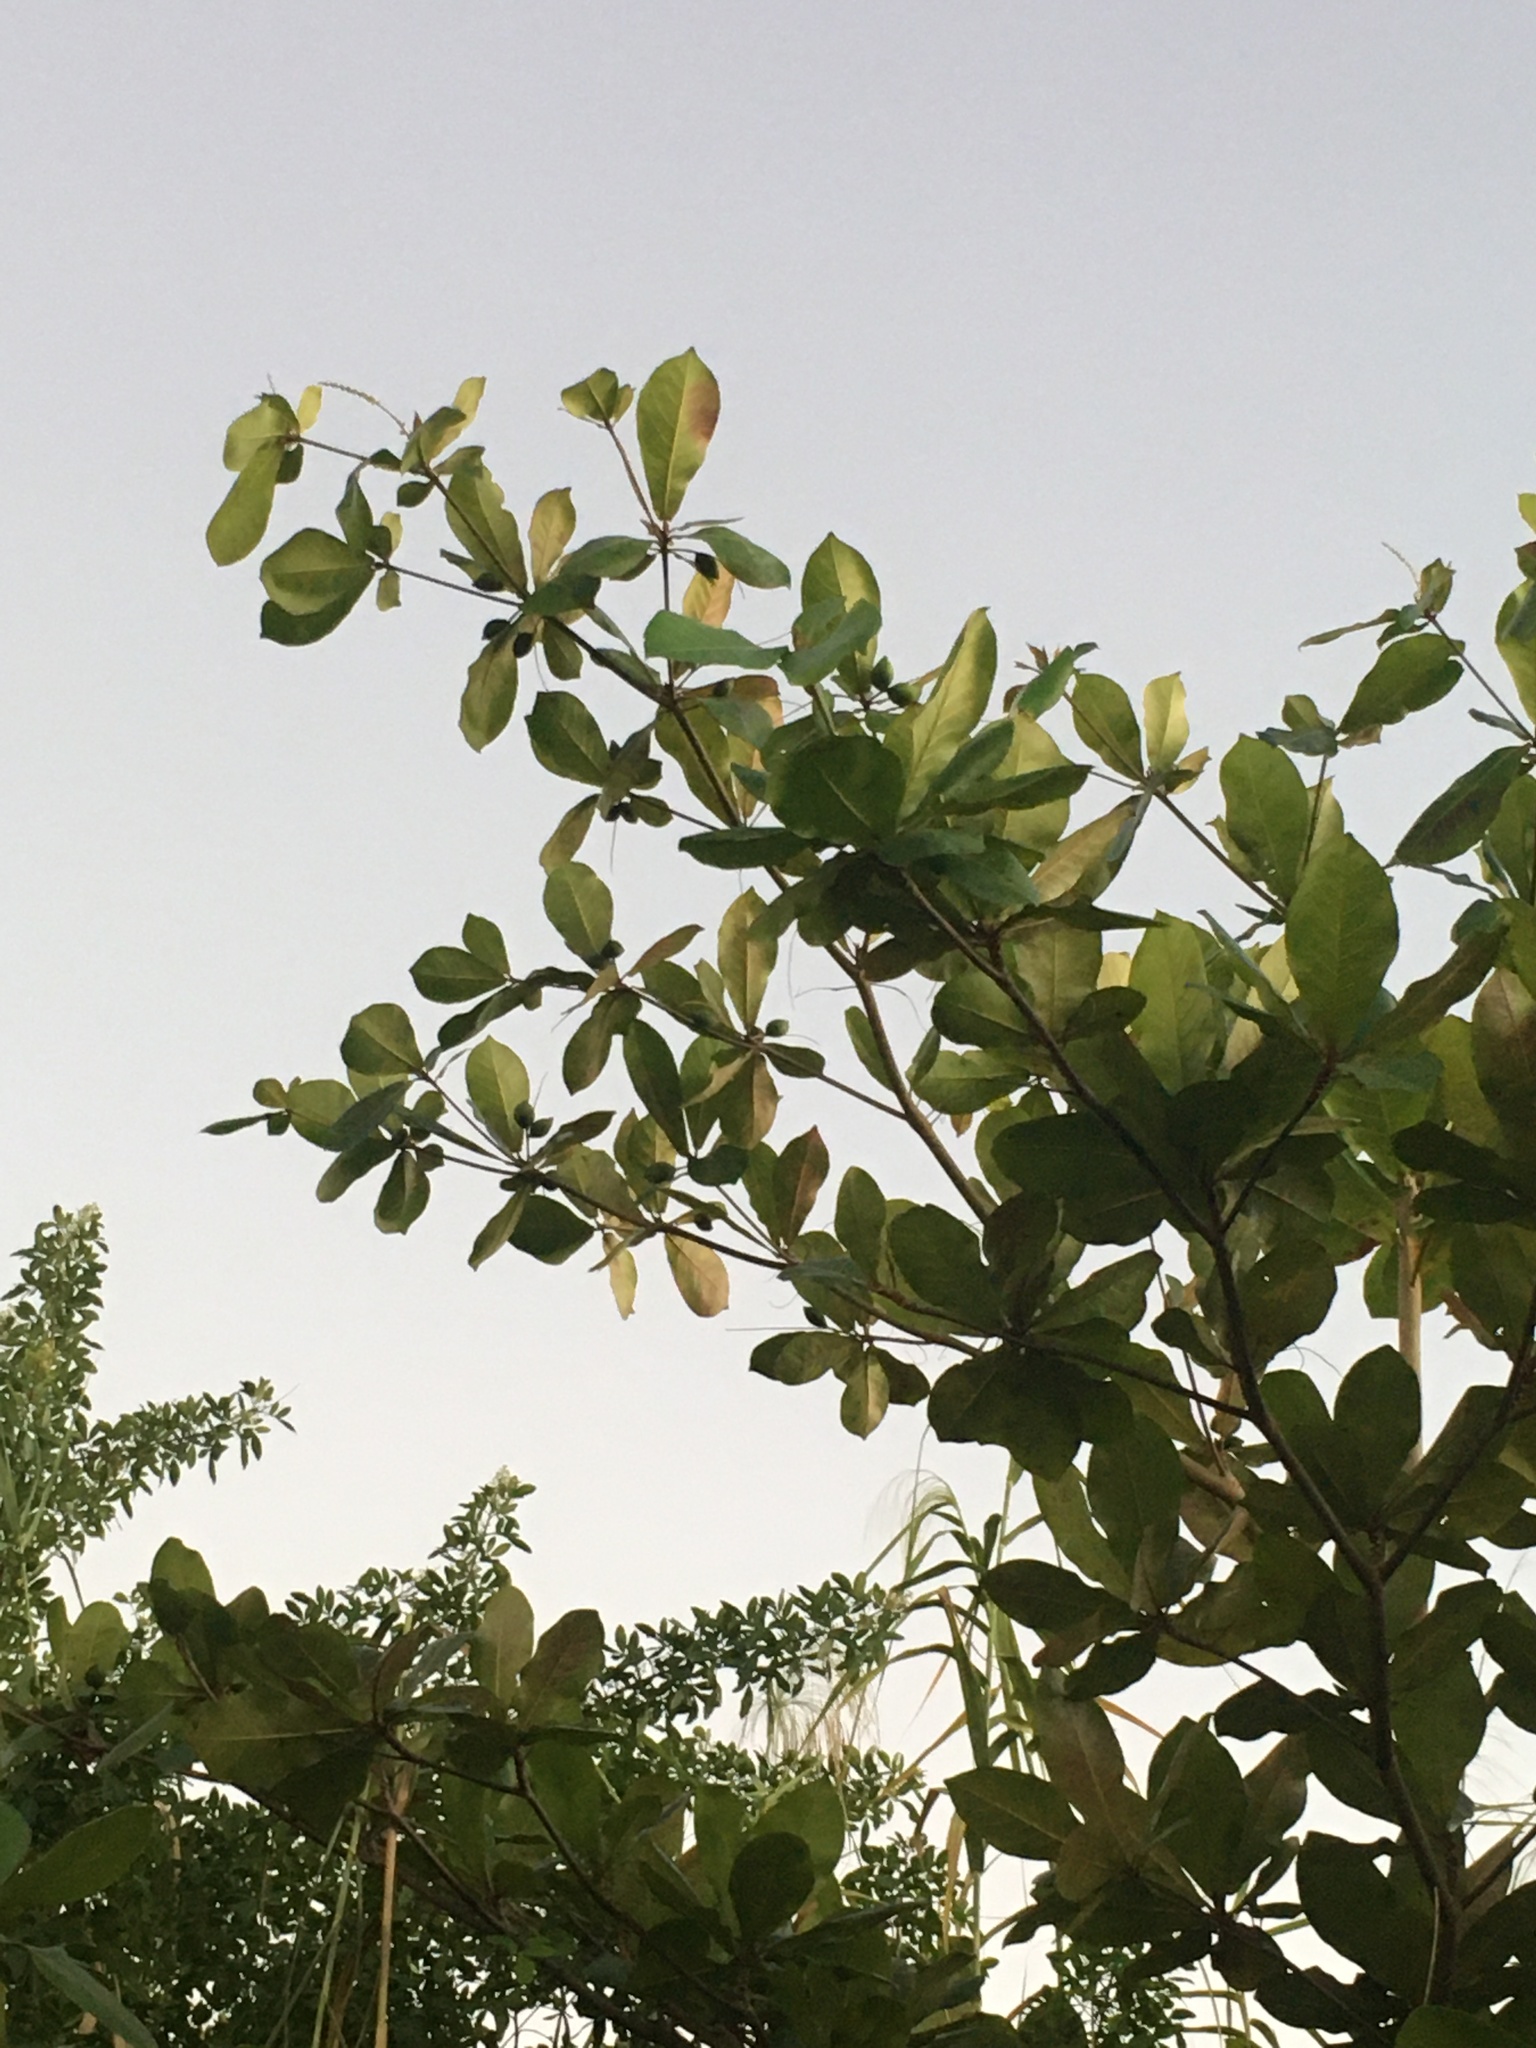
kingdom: Plantae
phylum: Tracheophyta
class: Magnoliopsida
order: Myrtales
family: Combretaceae
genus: Terminalia
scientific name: Terminalia catappa
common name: Tropical almond
